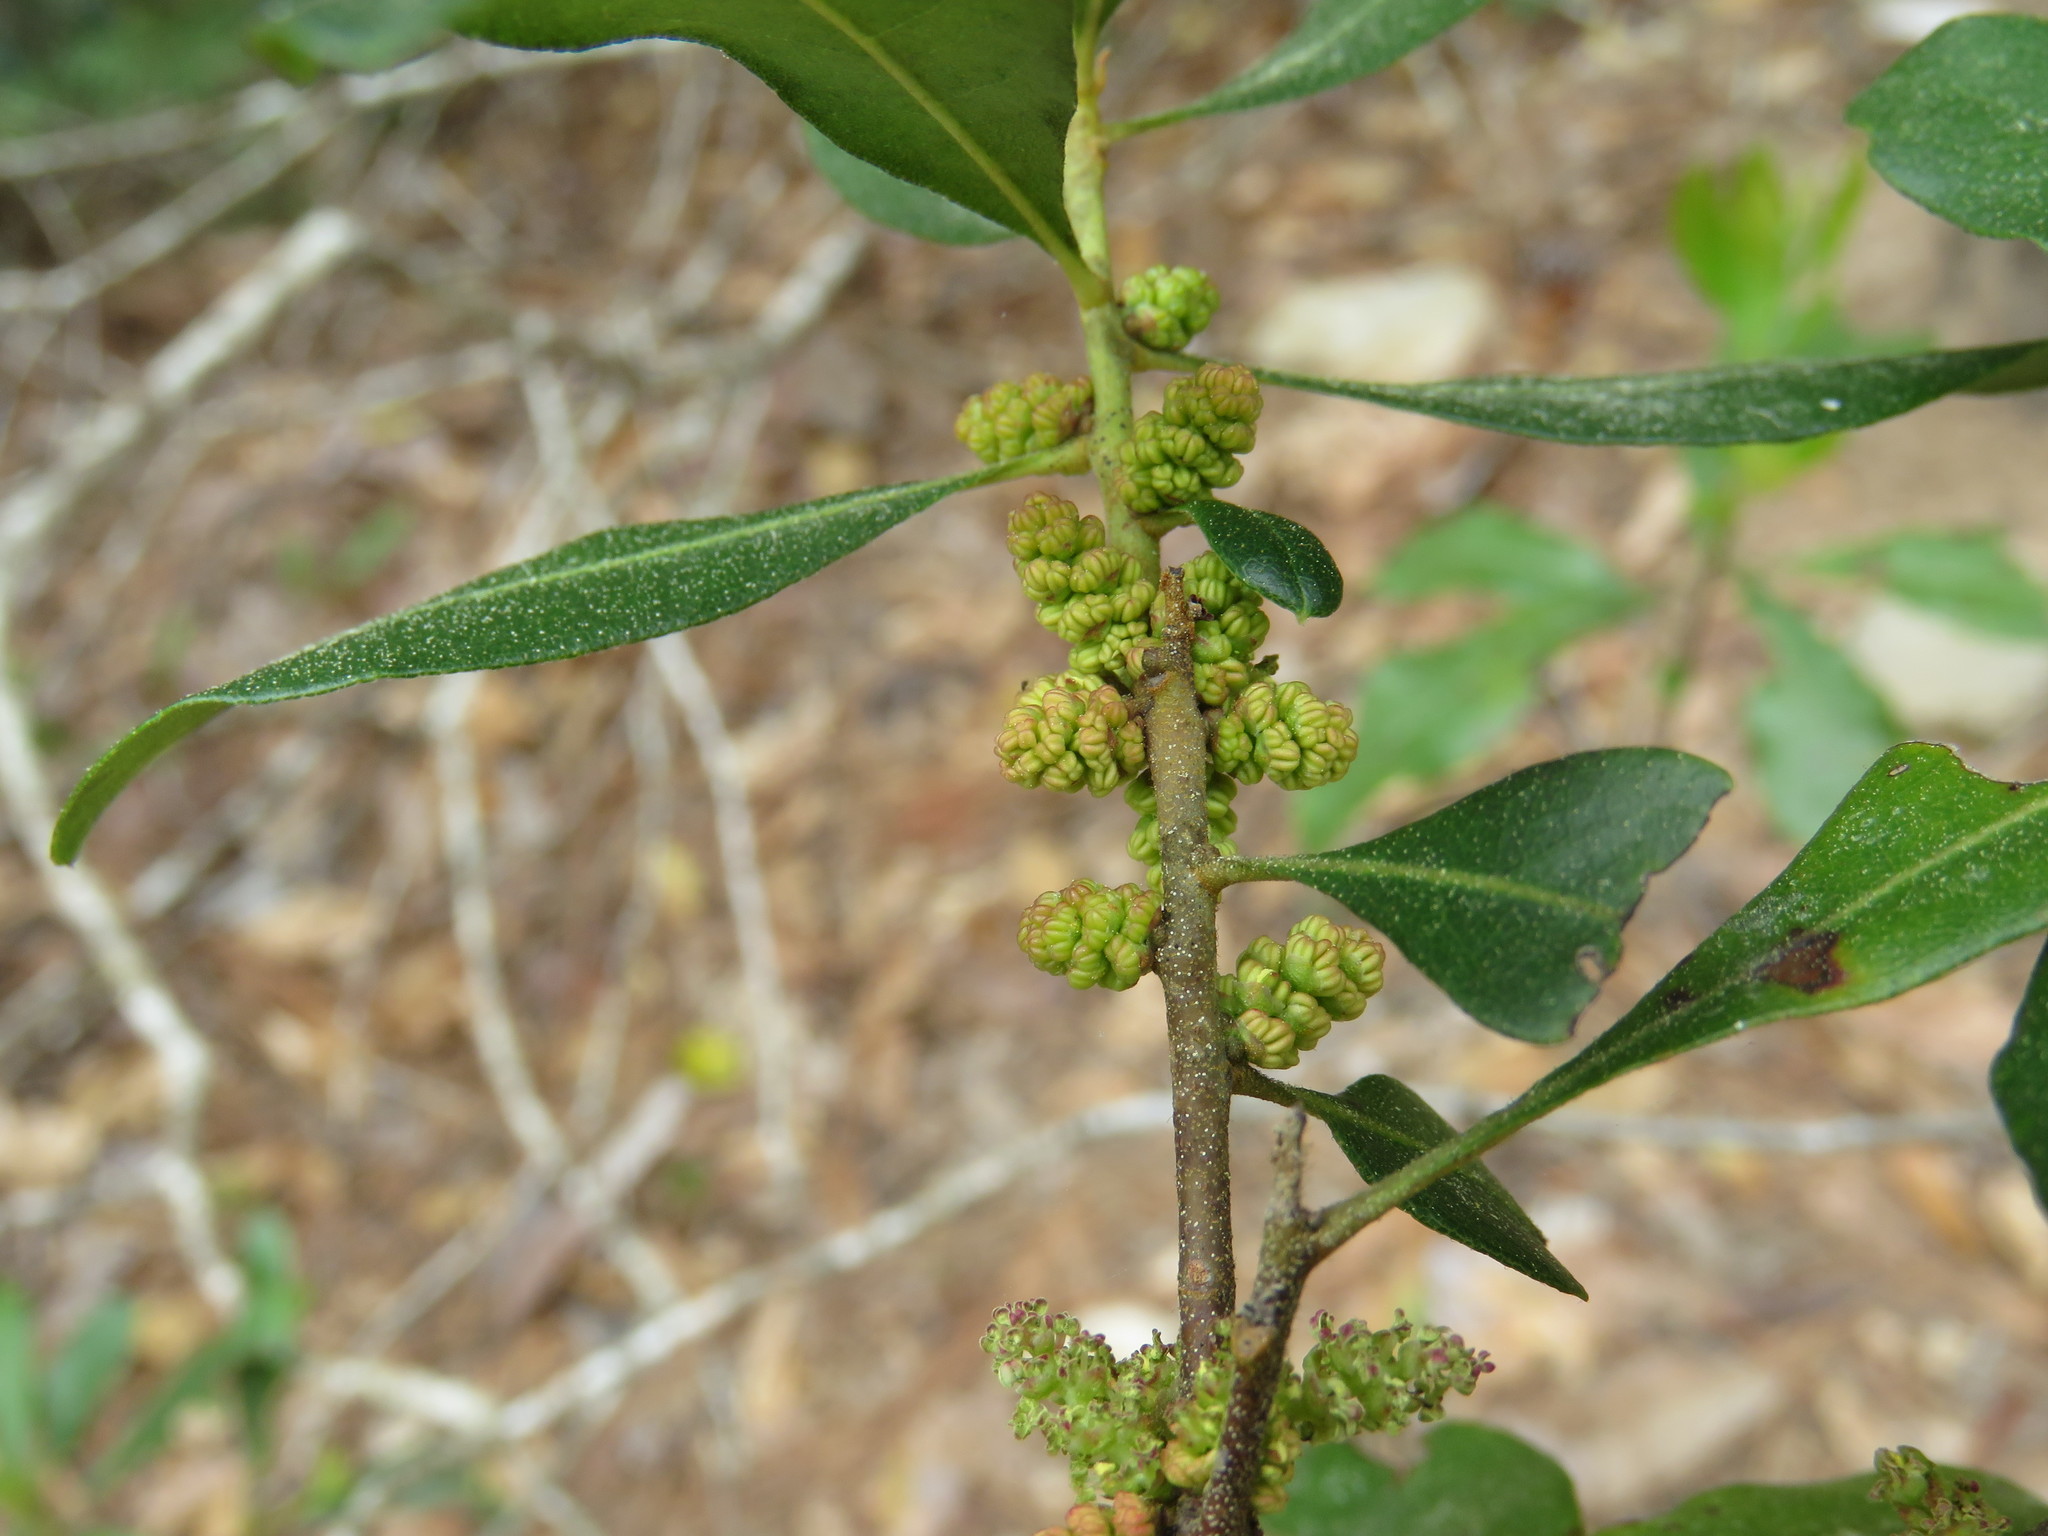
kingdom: Plantae
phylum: Tracheophyta
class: Magnoliopsida
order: Fagales
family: Myricaceae
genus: Morella
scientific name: Morella cerifera
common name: Wax myrtle
